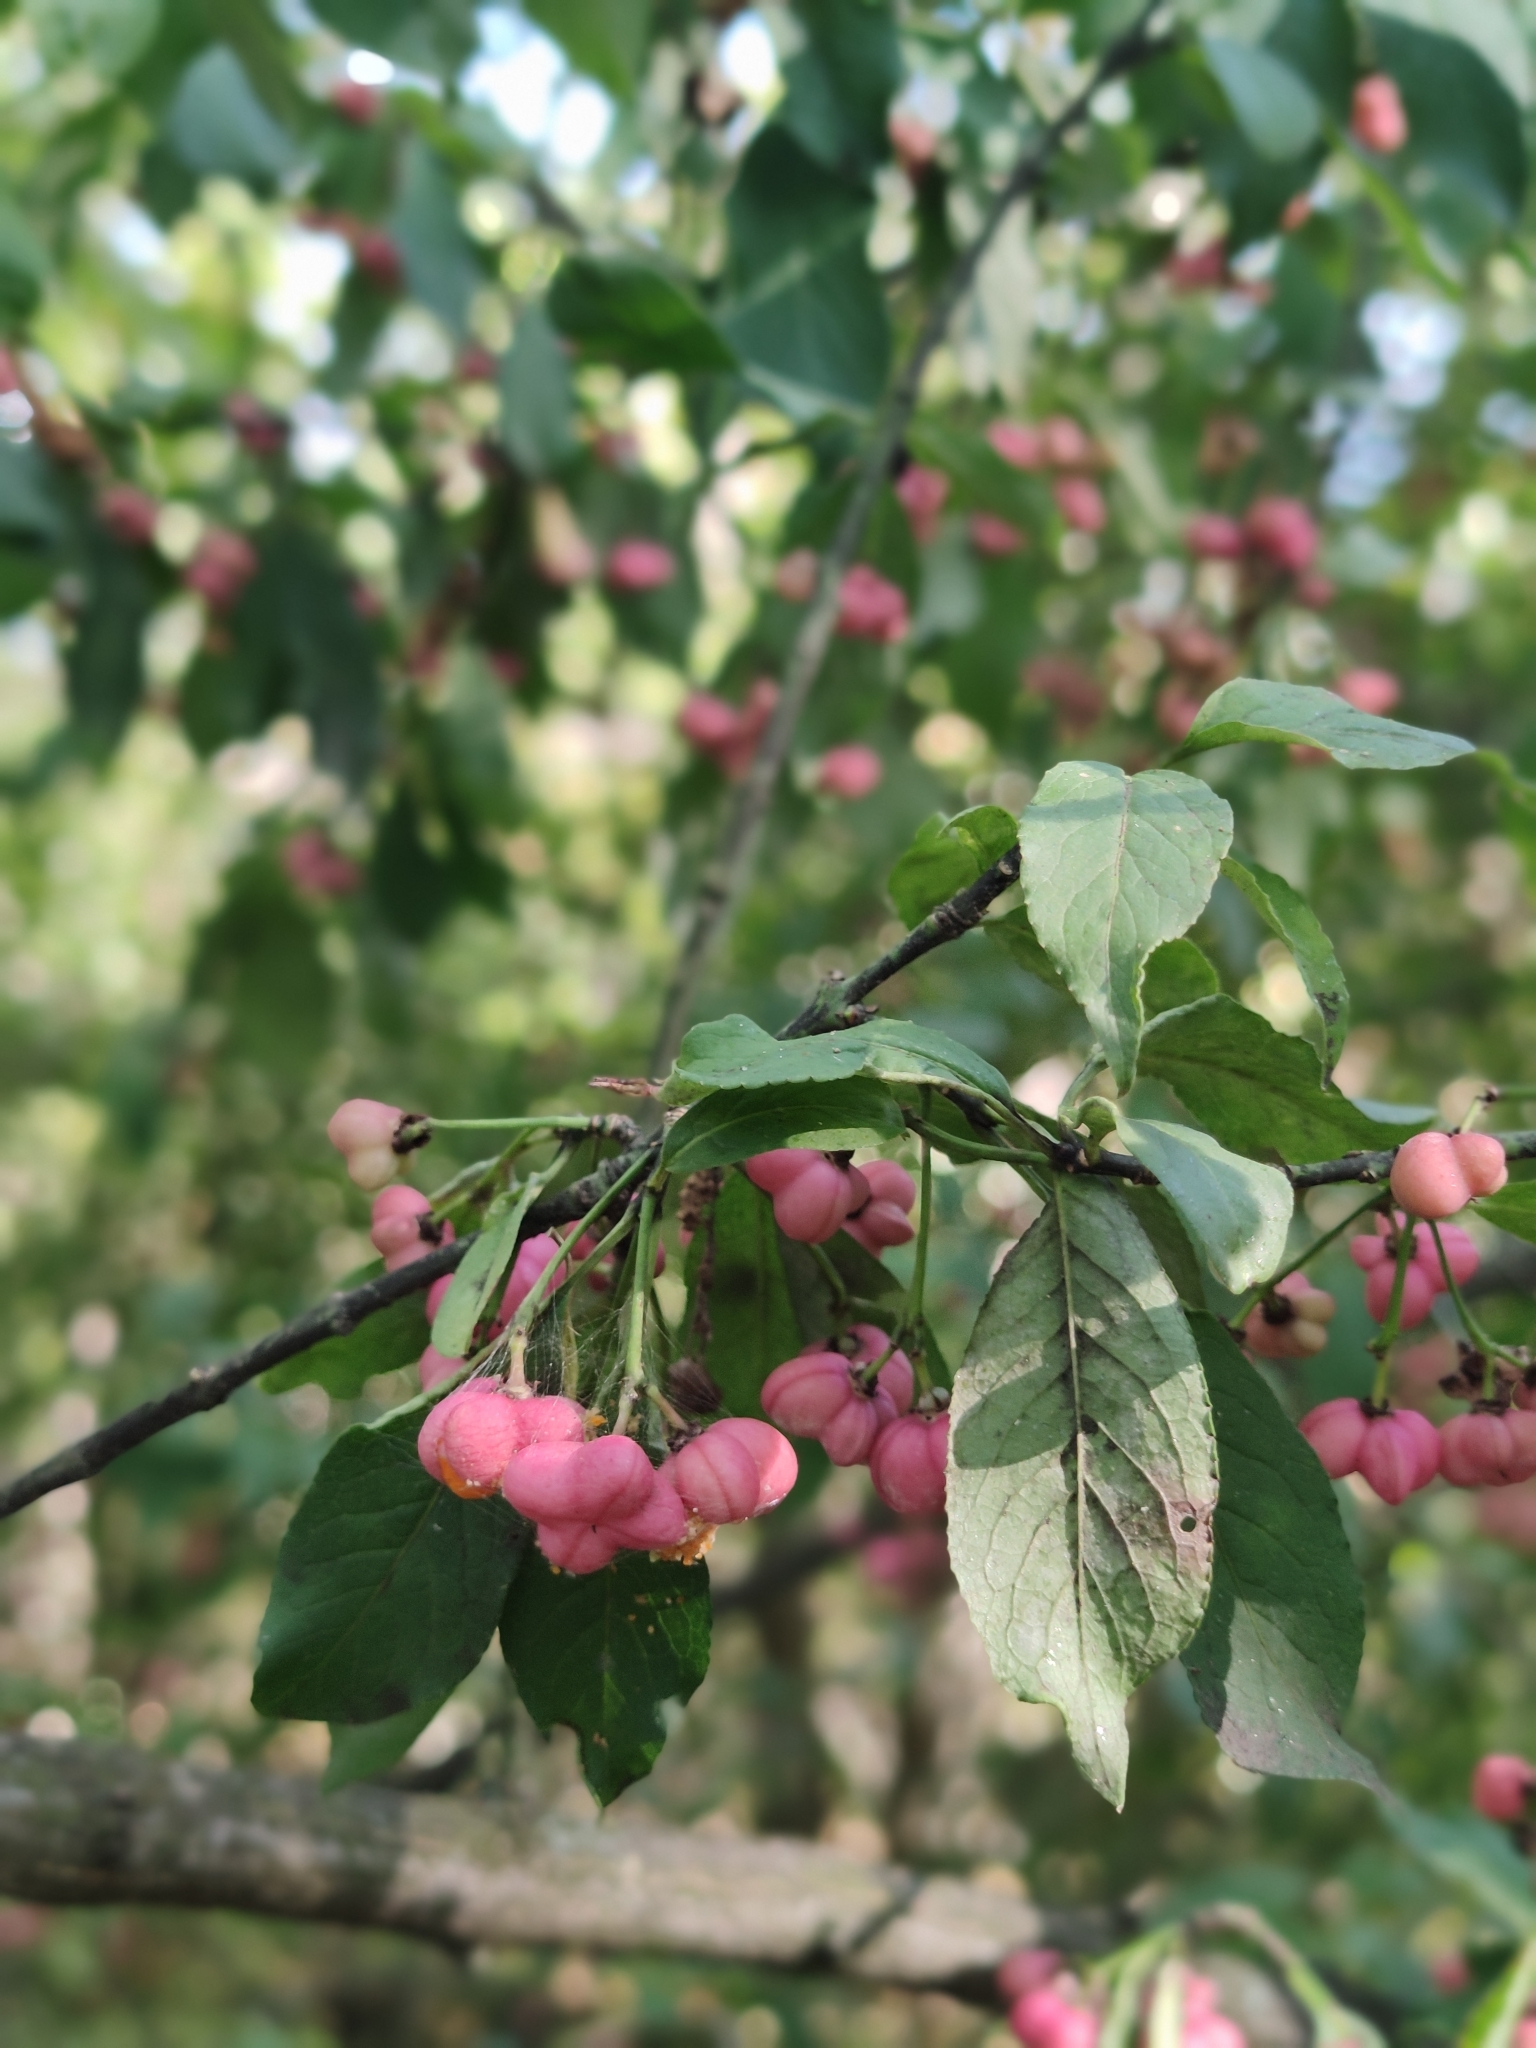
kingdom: Plantae
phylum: Tracheophyta
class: Magnoliopsida
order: Celastrales
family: Celastraceae
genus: Euonymus
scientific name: Euonymus europaeus
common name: Spindle
